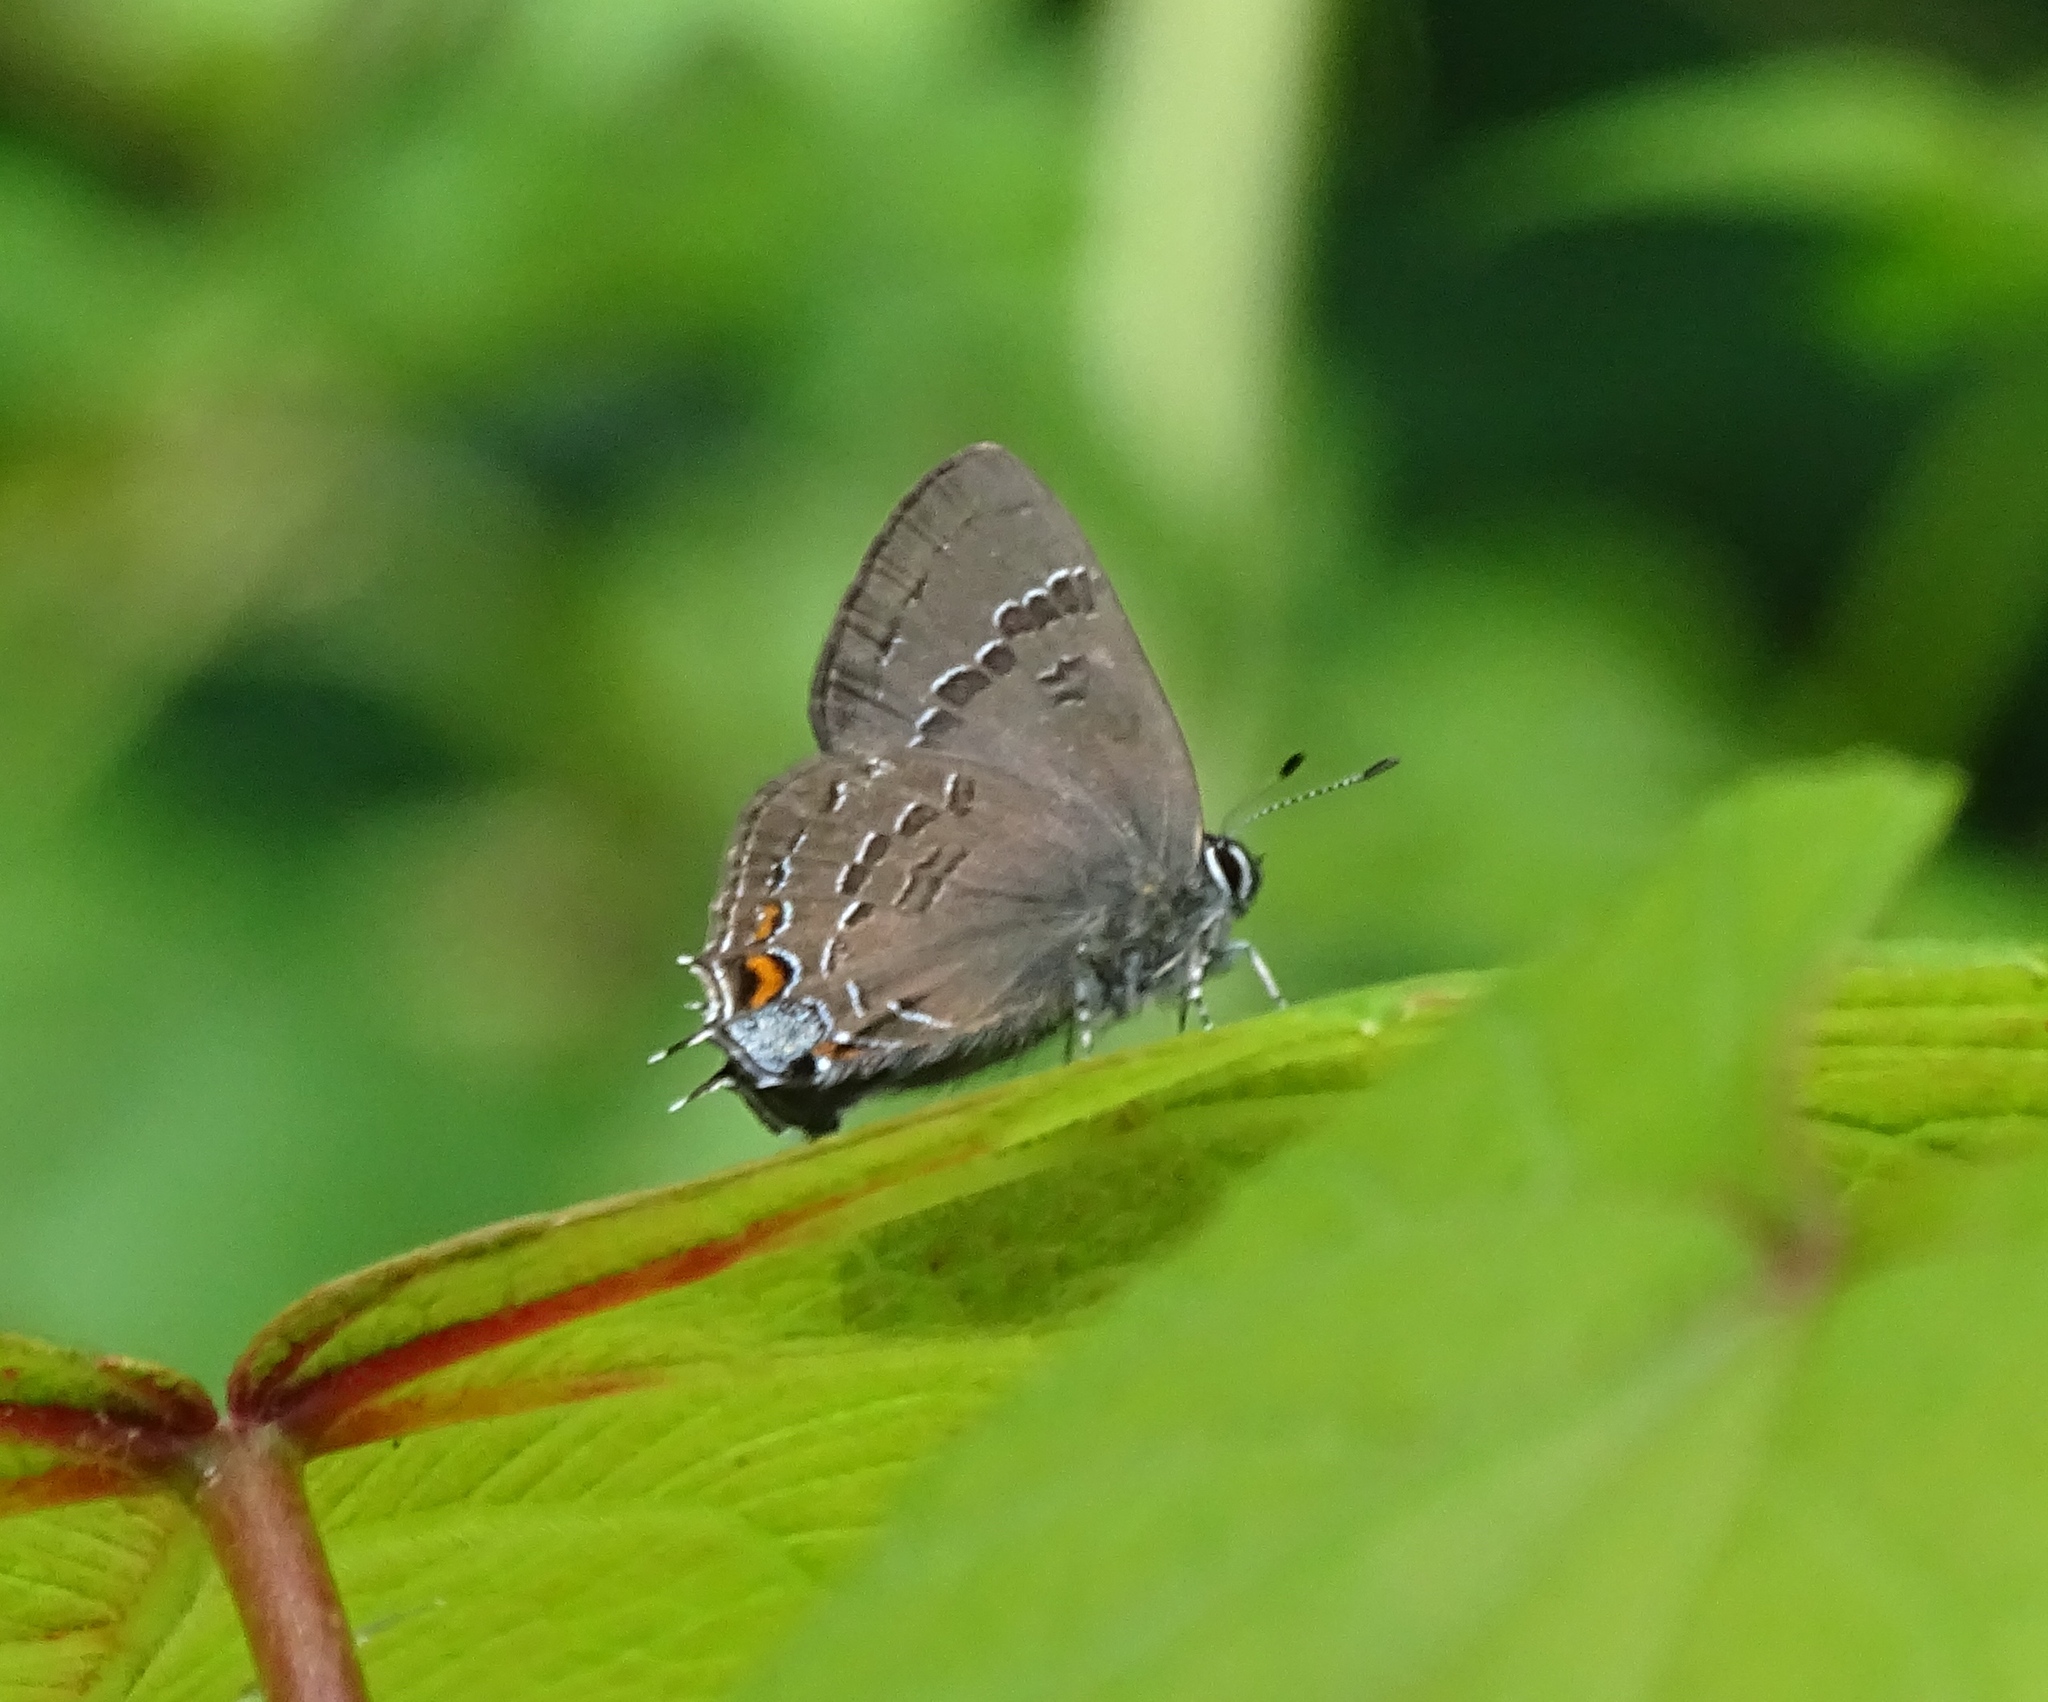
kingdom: Animalia
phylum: Arthropoda
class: Insecta
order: Lepidoptera
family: Lycaenidae
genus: Satyrium
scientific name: Satyrium calanus
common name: Banded hairstreak
